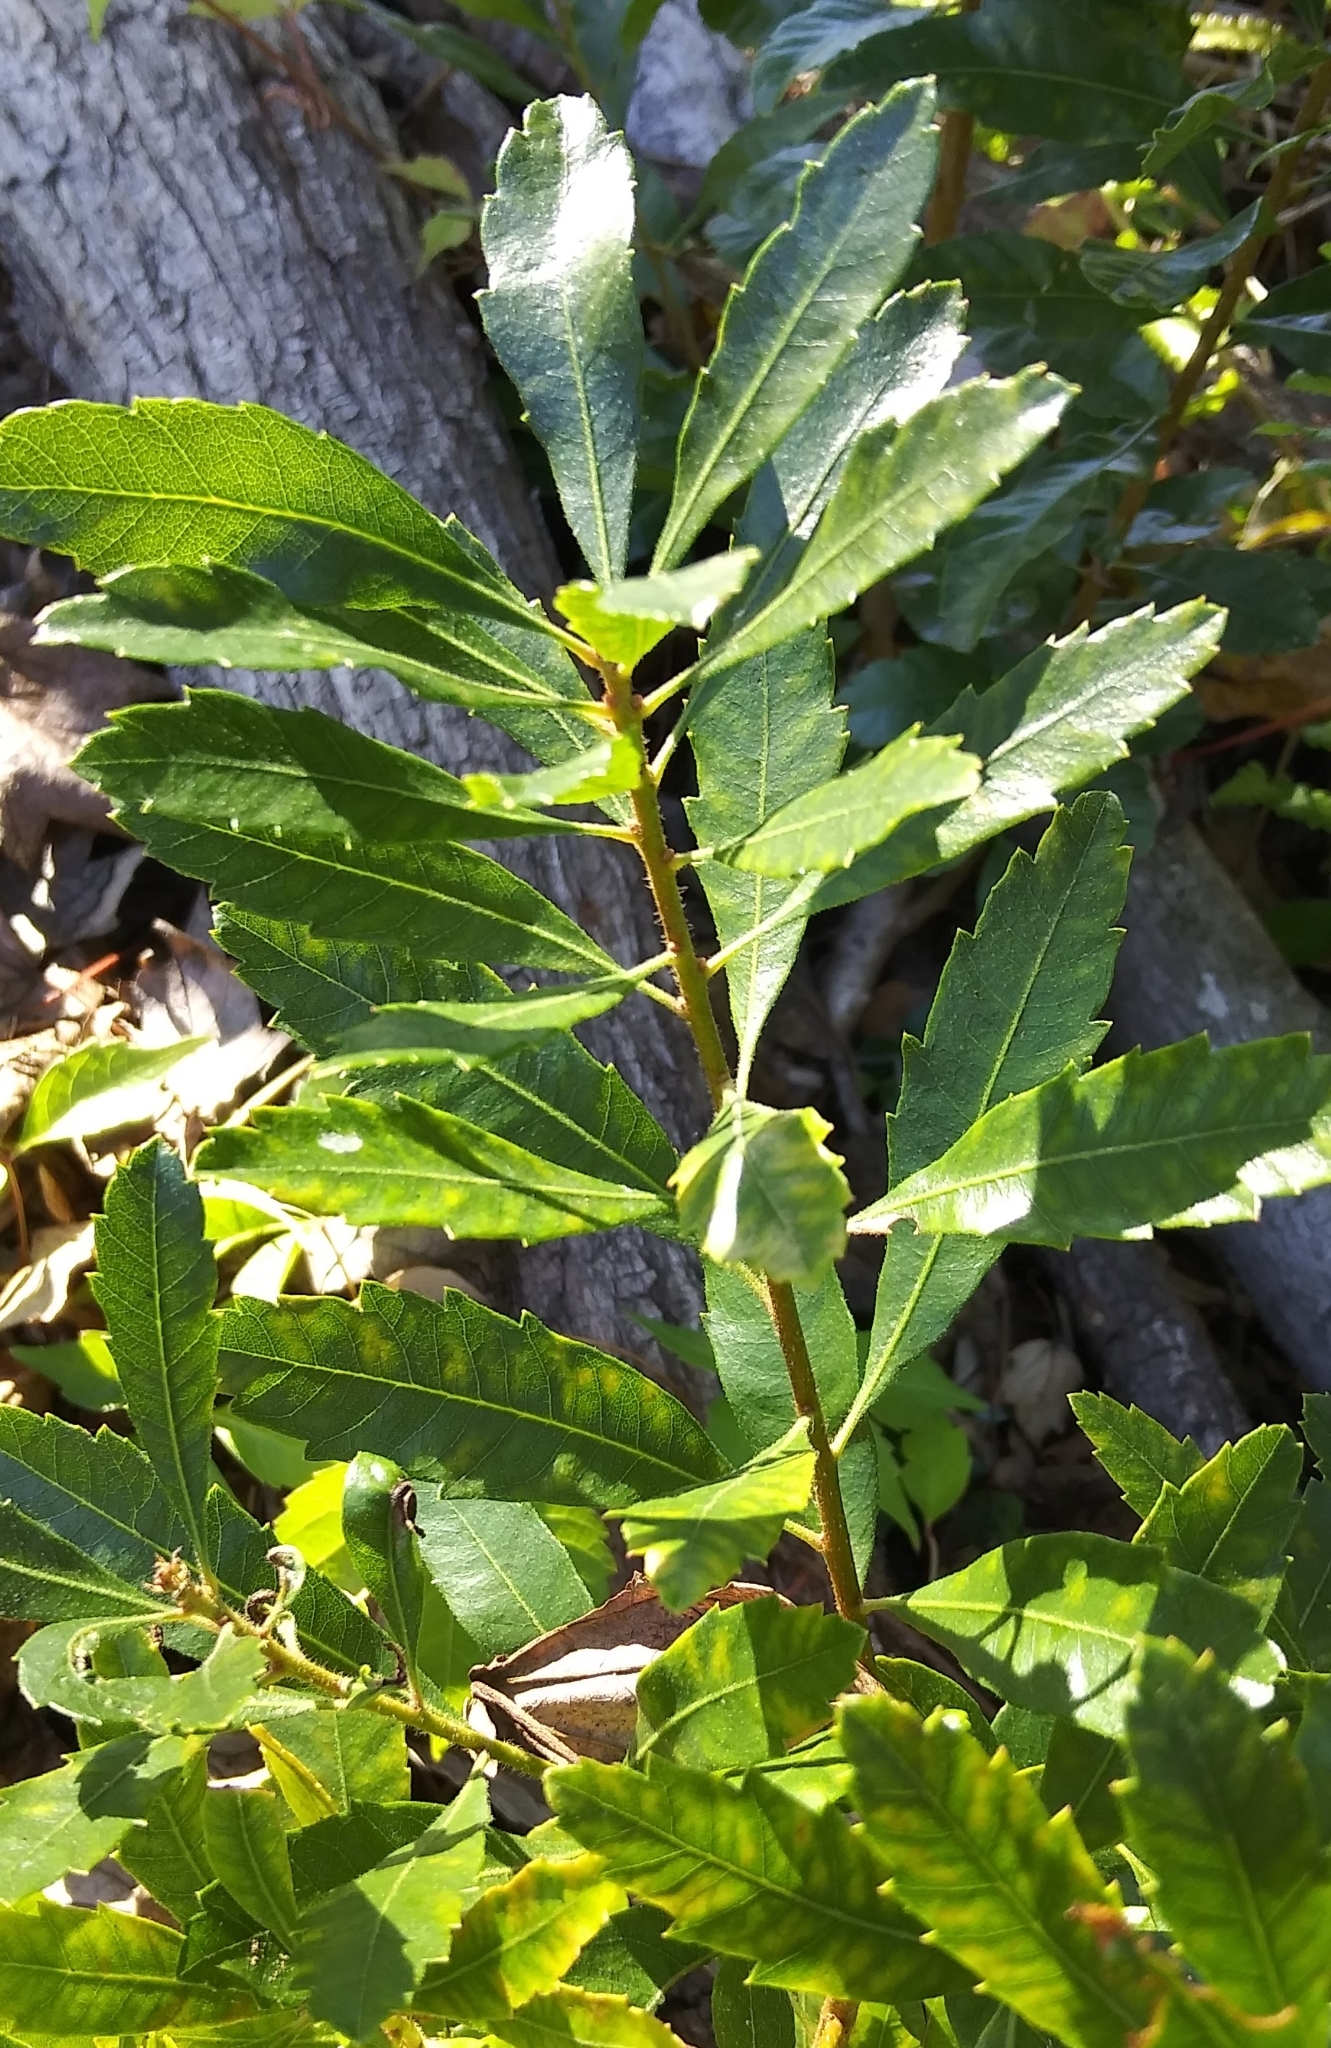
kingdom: Plantae
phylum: Tracheophyta
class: Magnoliopsida
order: Fagales
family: Myricaceae
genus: Morella
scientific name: Morella cerifera
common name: Wax myrtle
